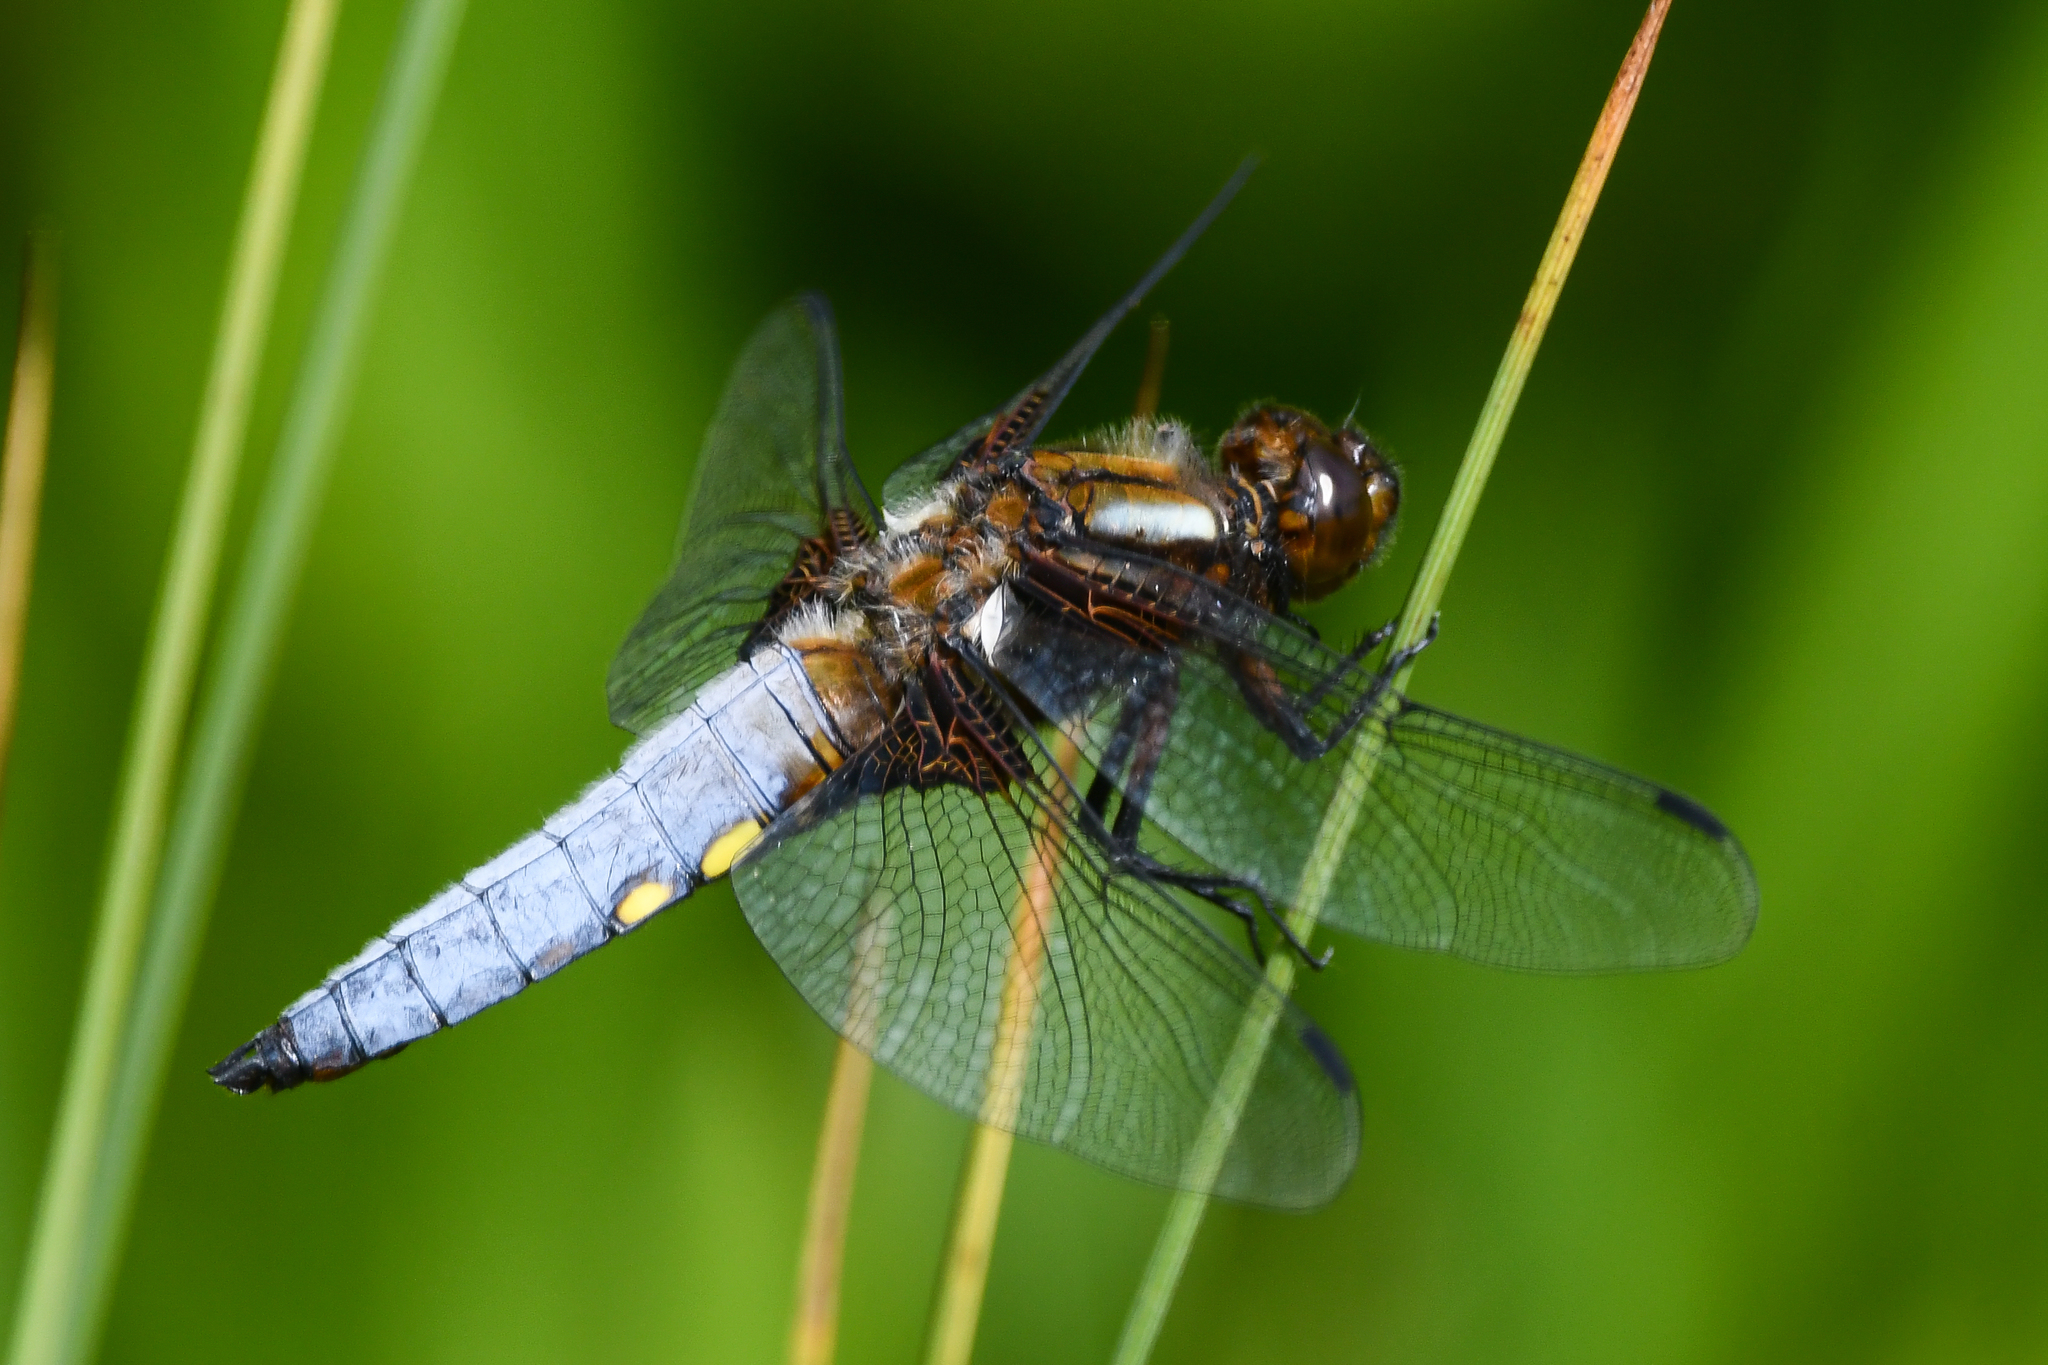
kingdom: Animalia
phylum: Arthropoda
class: Insecta
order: Odonata
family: Libellulidae
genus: Libellula
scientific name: Libellula depressa
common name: Broad-bodied chaser
